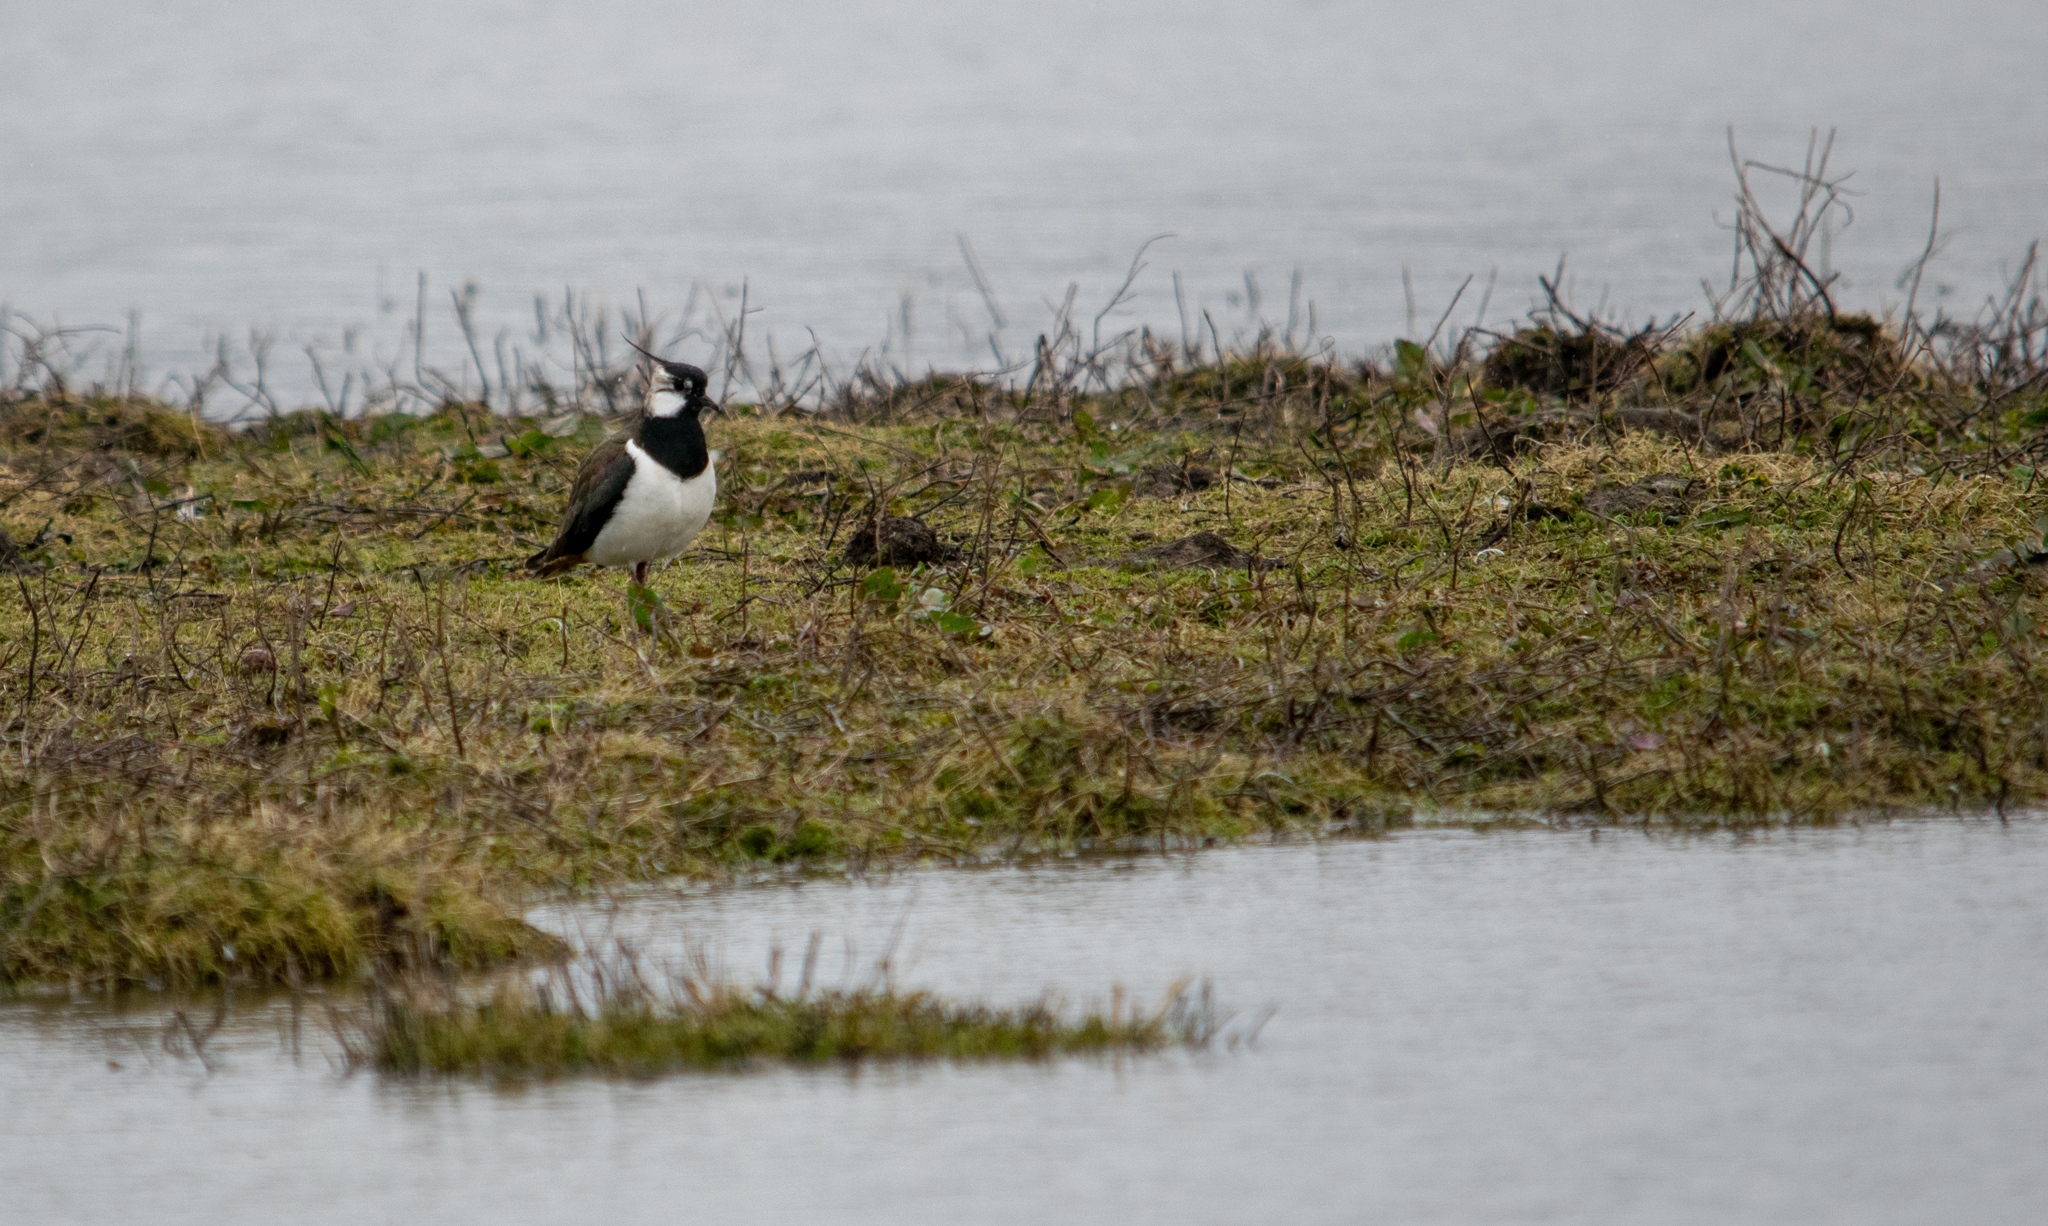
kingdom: Animalia
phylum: Chordata
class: Aves
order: Charadriiformes
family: Charadriidae
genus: Vanellus
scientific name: Vanellus vanellus
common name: Northern lapwing
